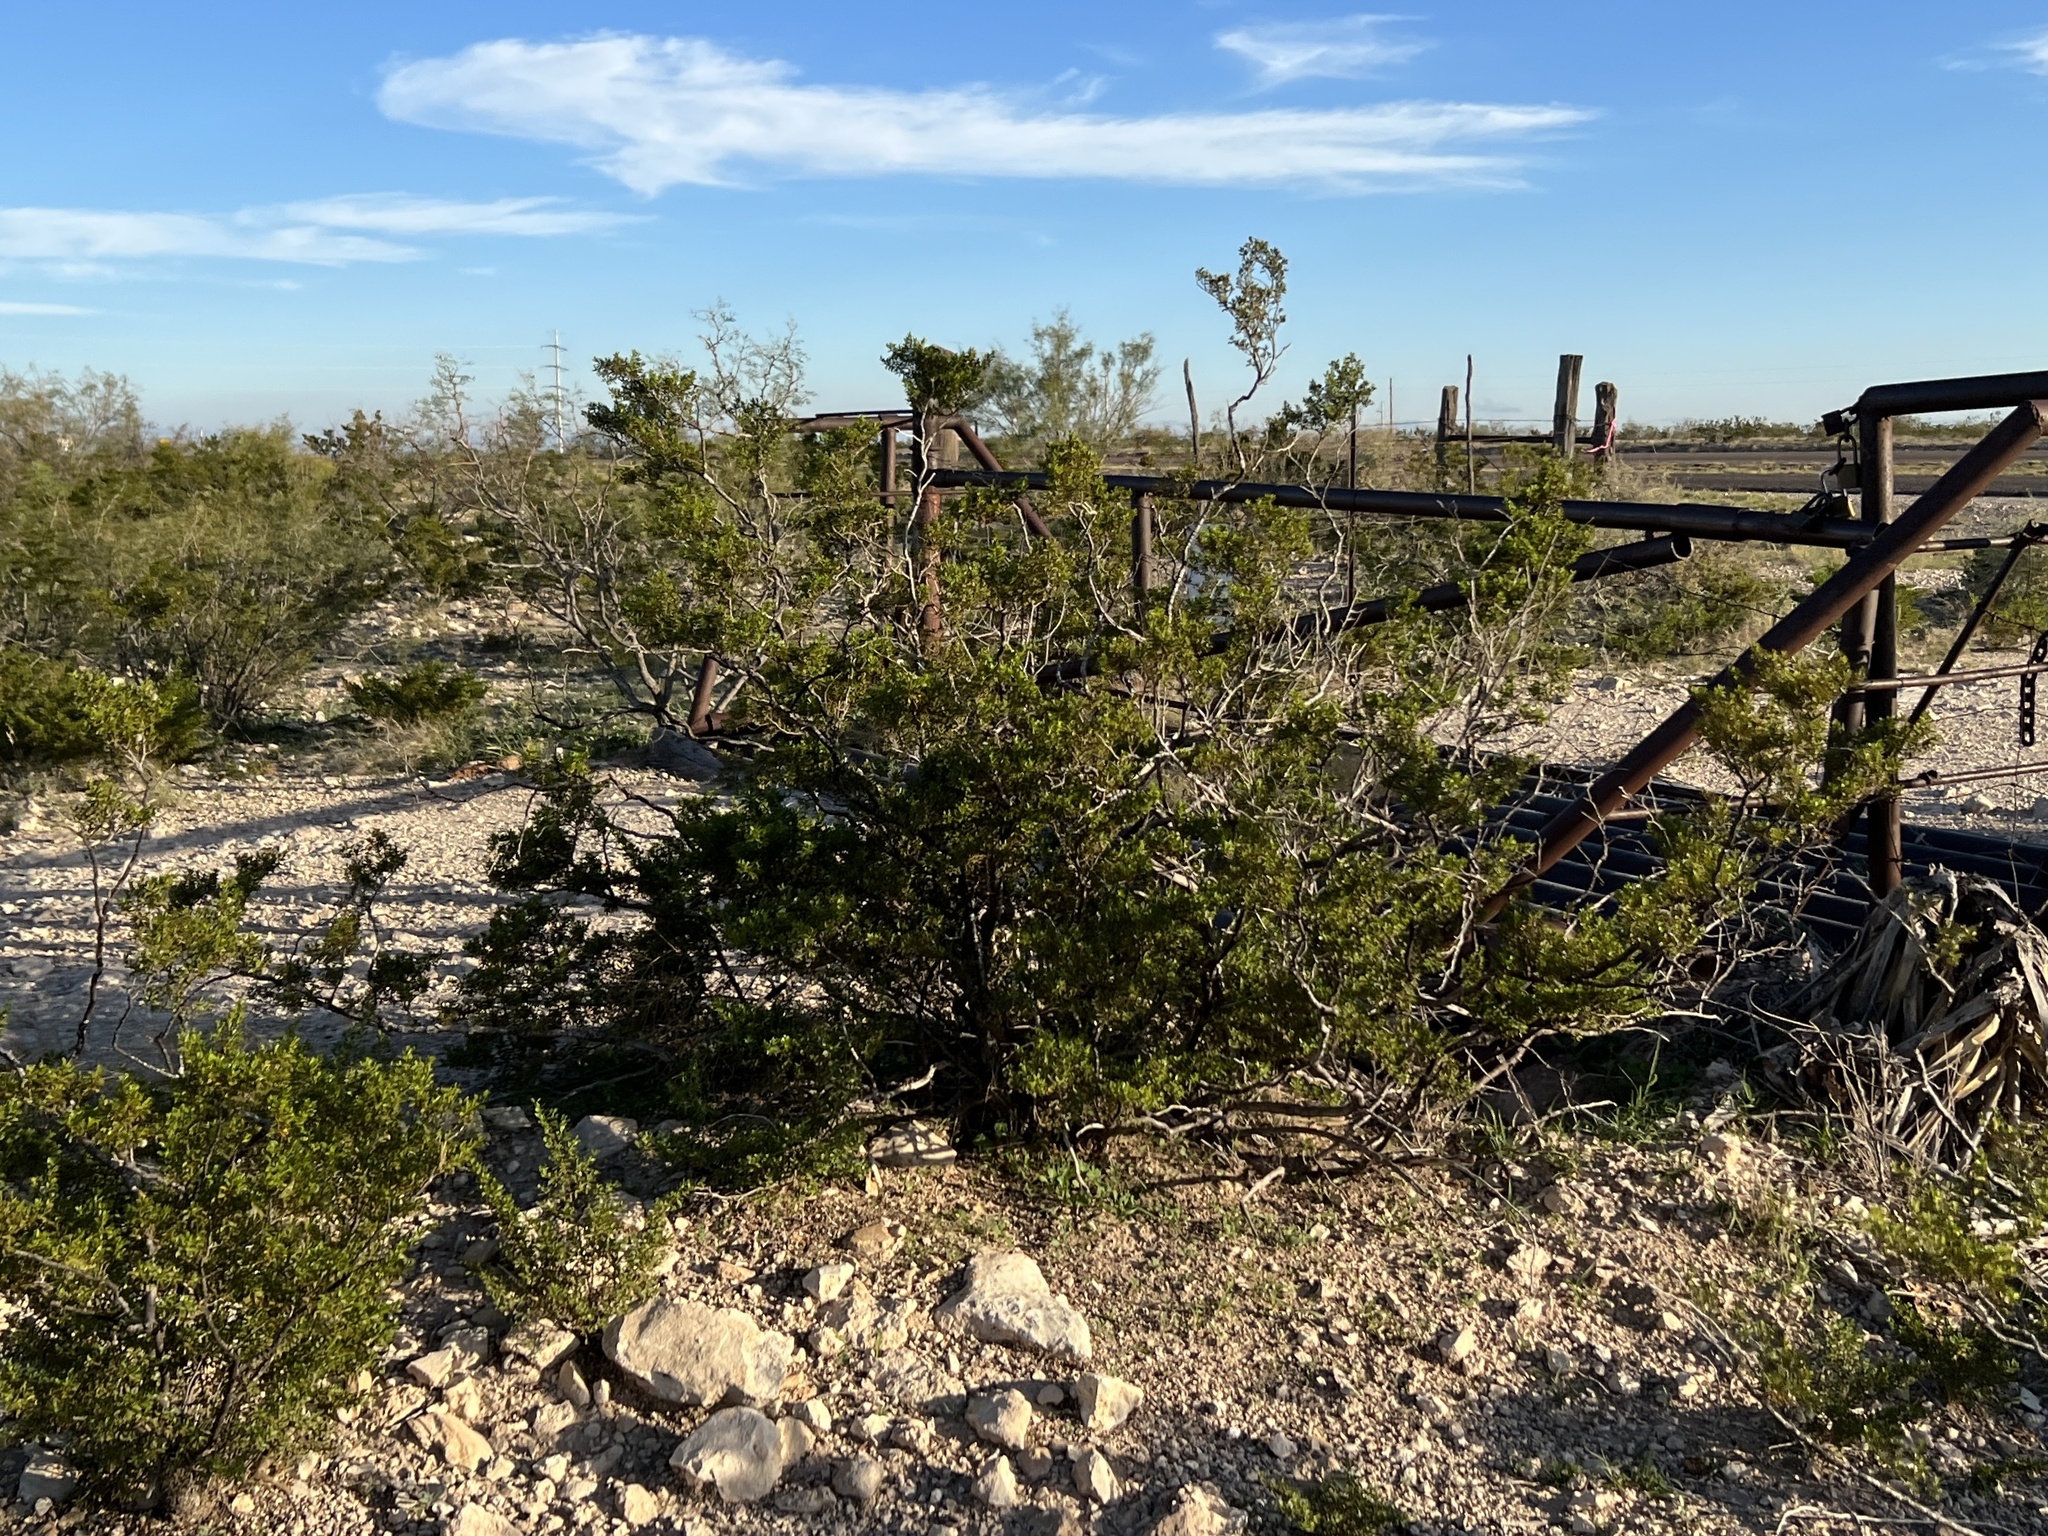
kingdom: Plantae
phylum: Tracheophyta
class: Magnoliopsida
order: Zygophyllales
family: Zygophyllaceae
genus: Larrea
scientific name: Larrea tridentata
